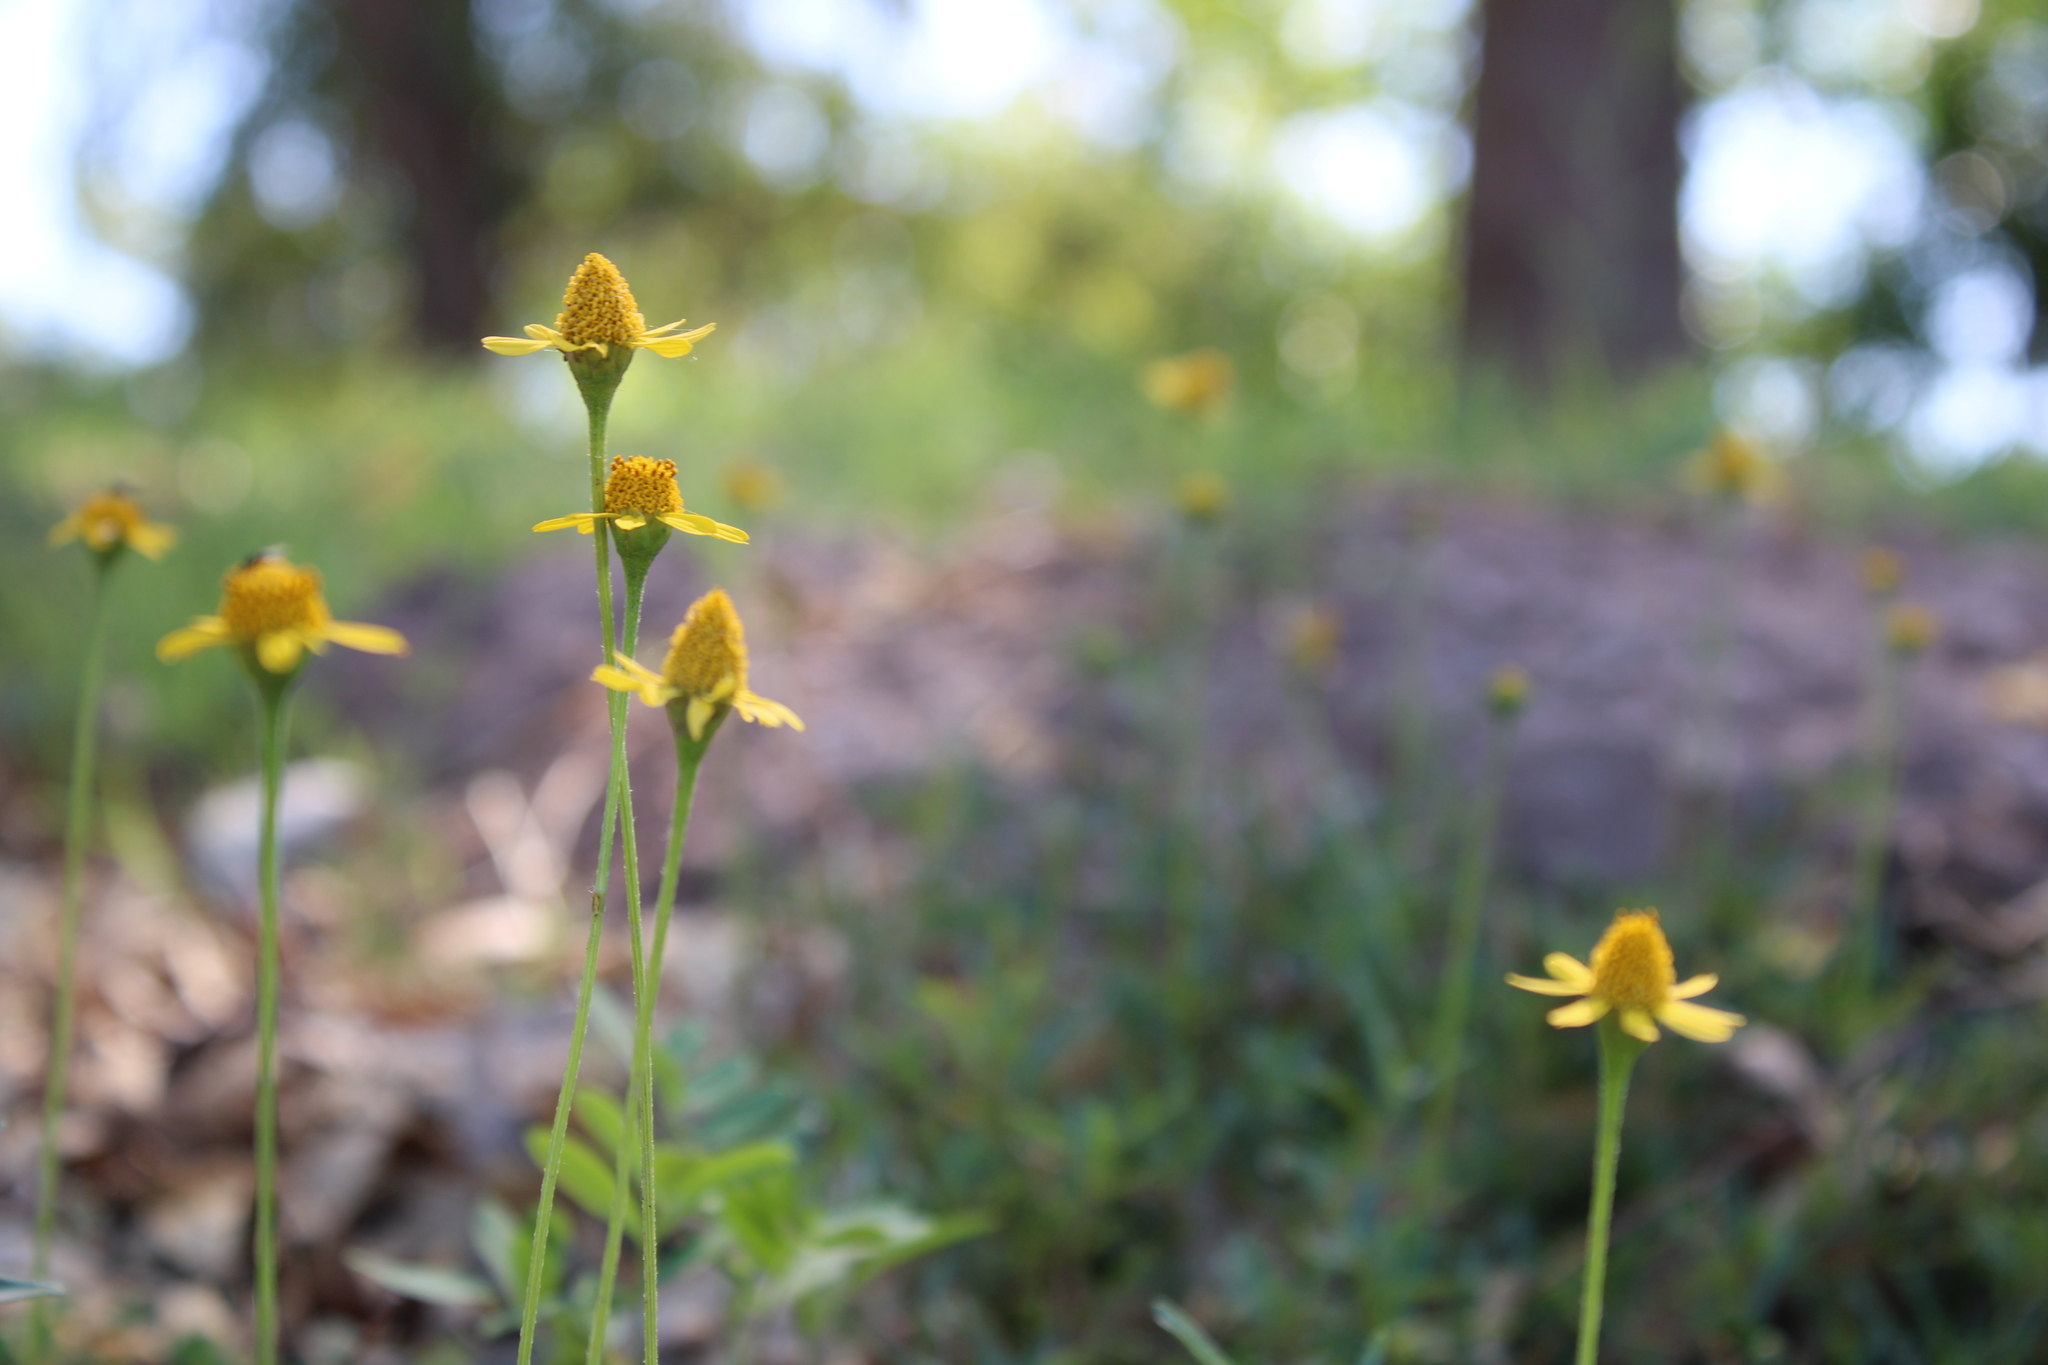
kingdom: Plantae
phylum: Tracheophyta
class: Magnoliopsida
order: Asterales
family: Asteraceae
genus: Acmella
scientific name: Acmella decumbens
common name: Creeping spotflower
